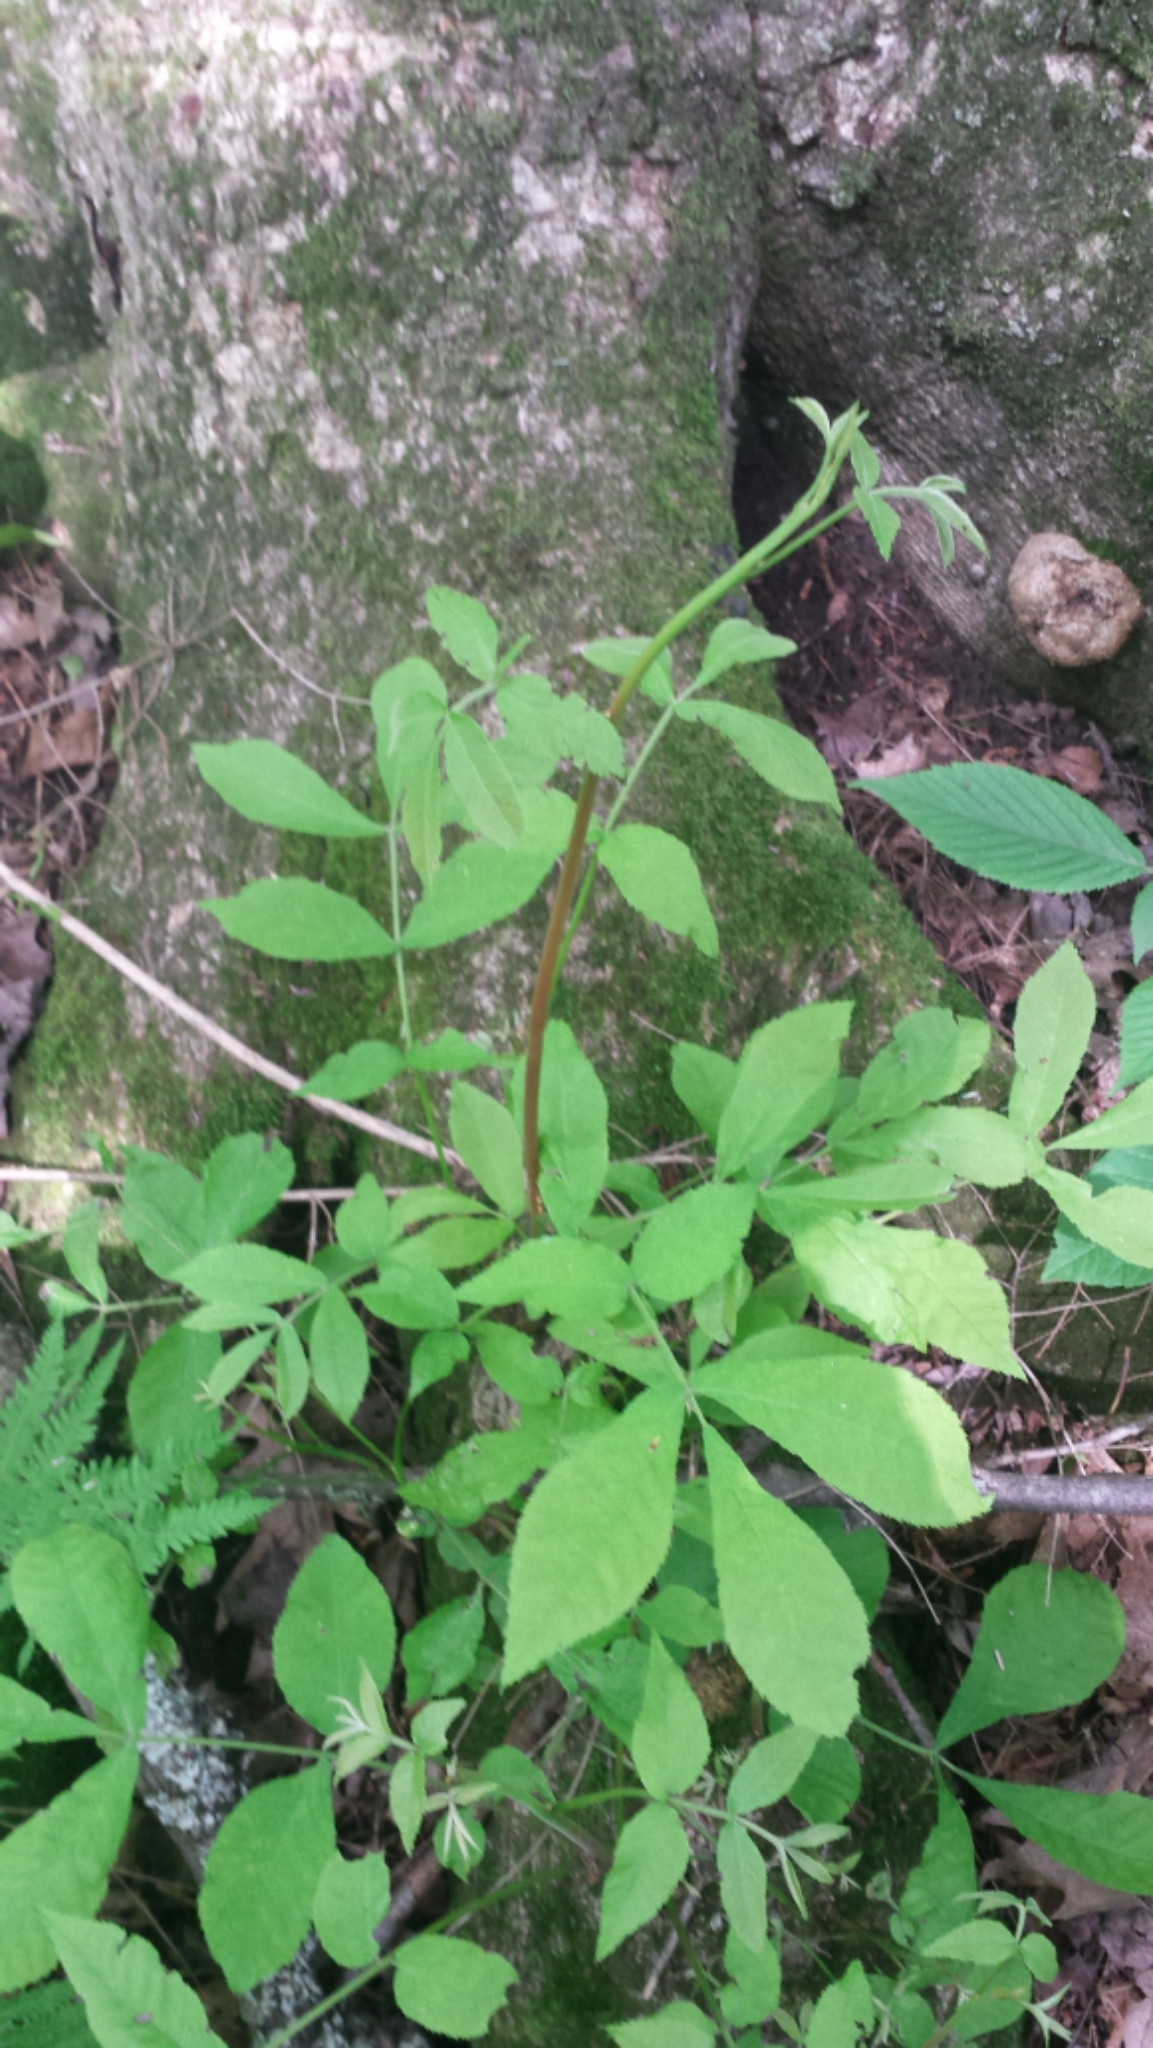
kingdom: Plantae
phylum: Tracheophyta
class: Magnoliopsida
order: Fagales
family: Juglandaceae
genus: Carya
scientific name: Carya cordiformis
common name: Bitternut hickory
